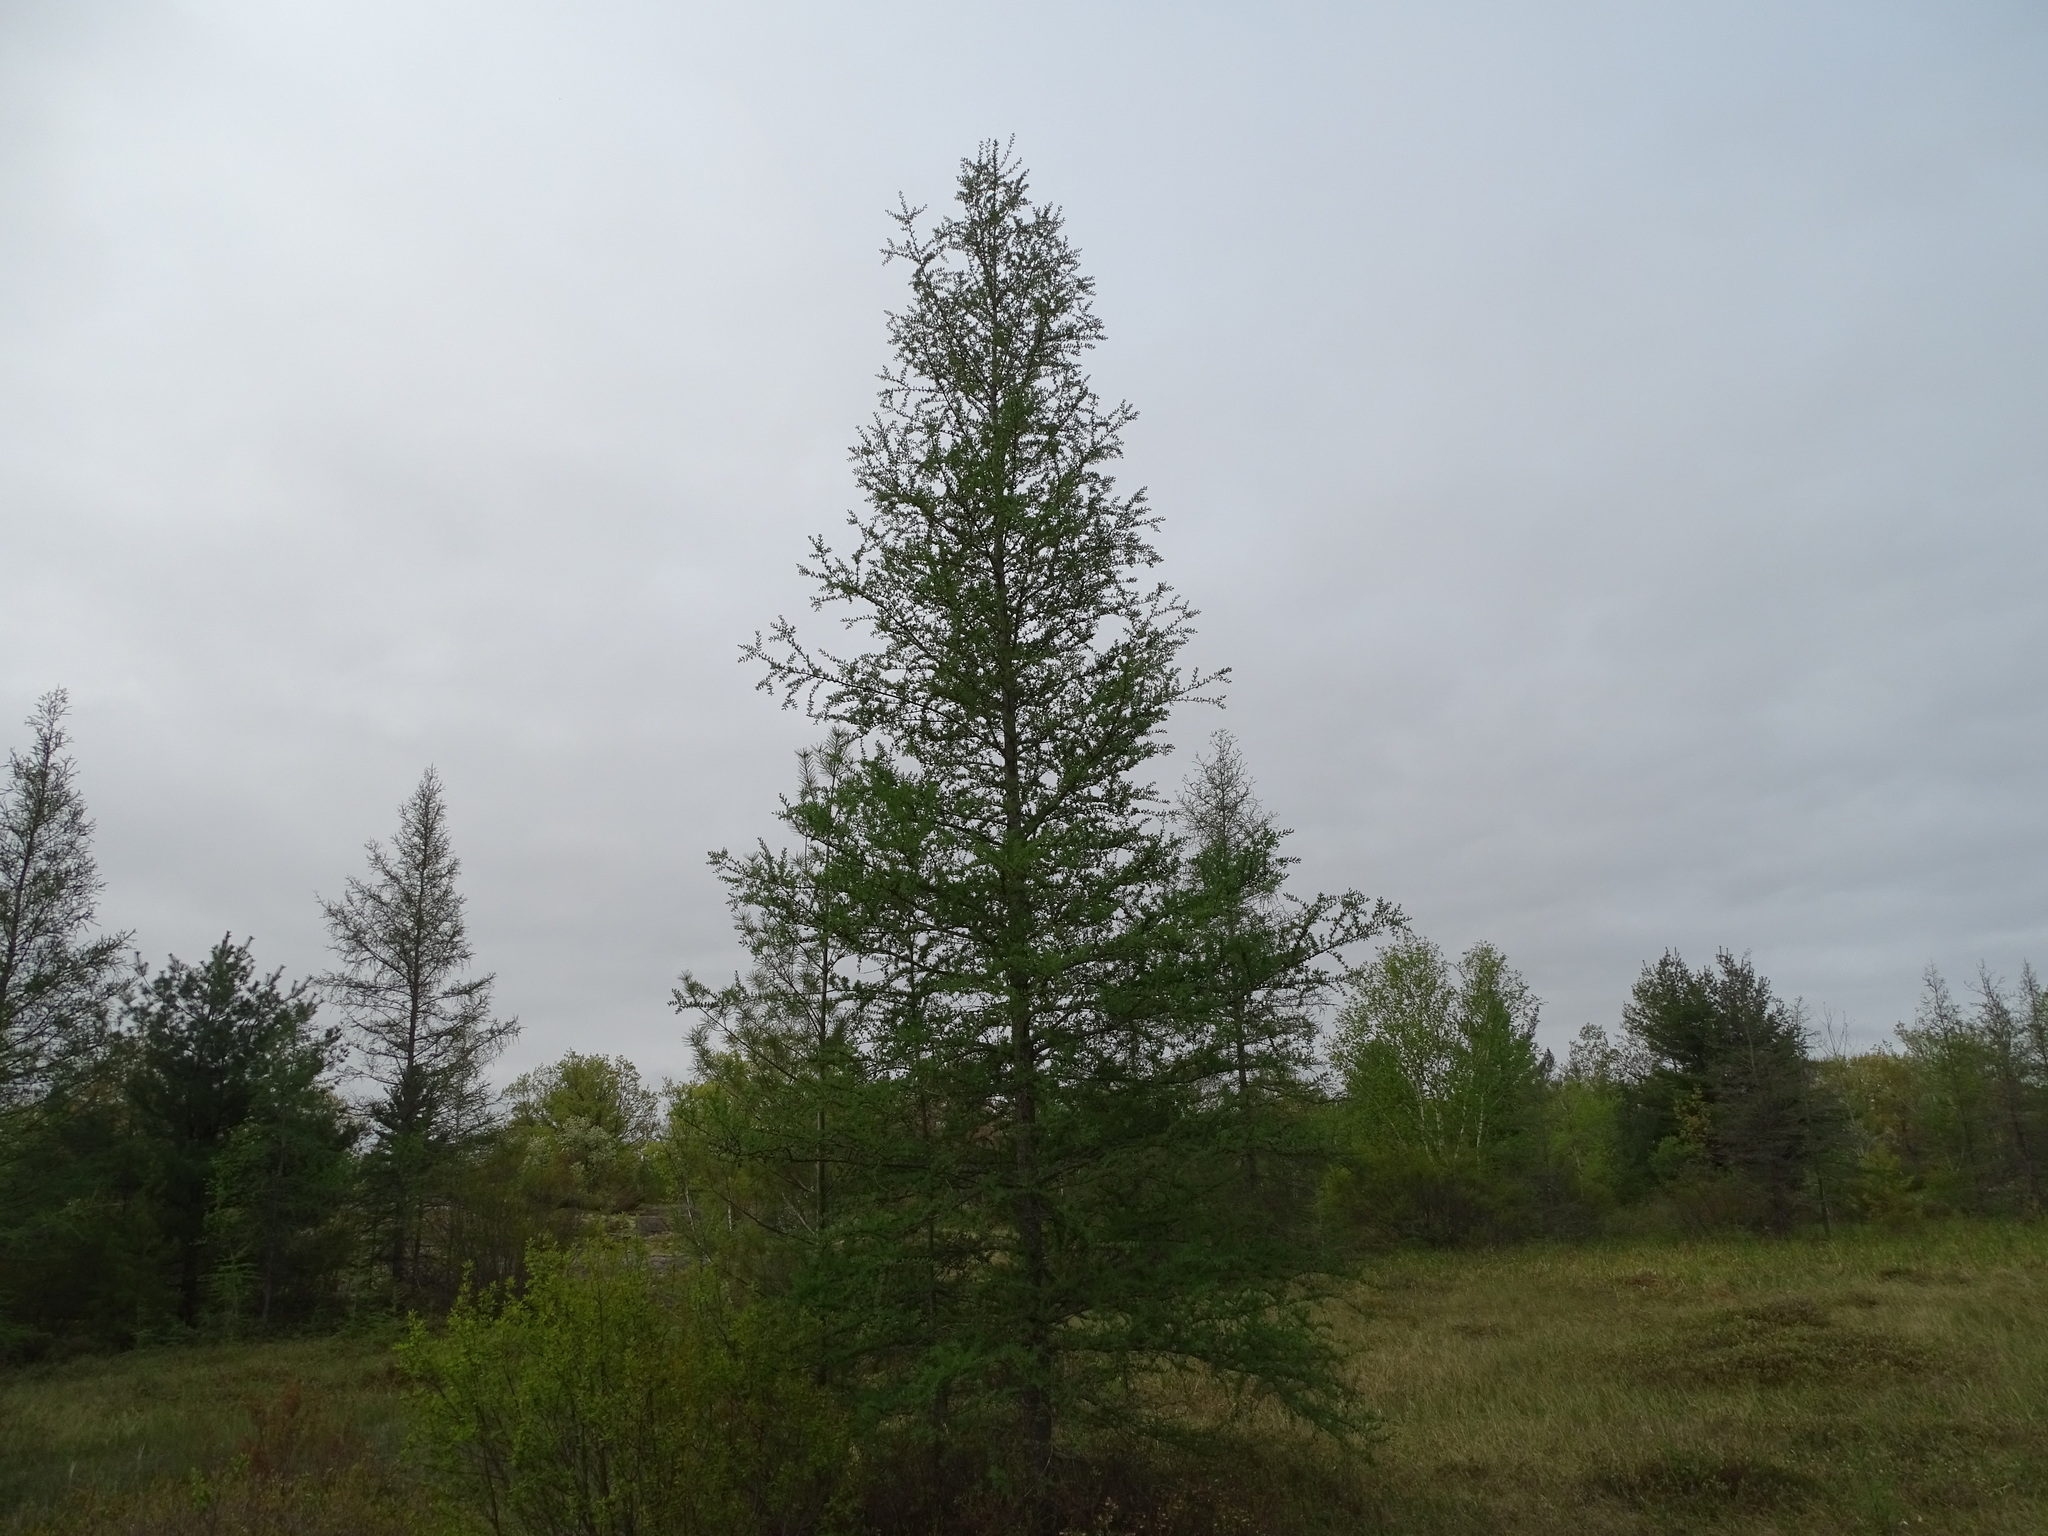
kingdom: Plantae
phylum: Tracheophyta
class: Pinopsida
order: Pinales
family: Pinaceae
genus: Larix
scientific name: Larix laricina
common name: American larch
